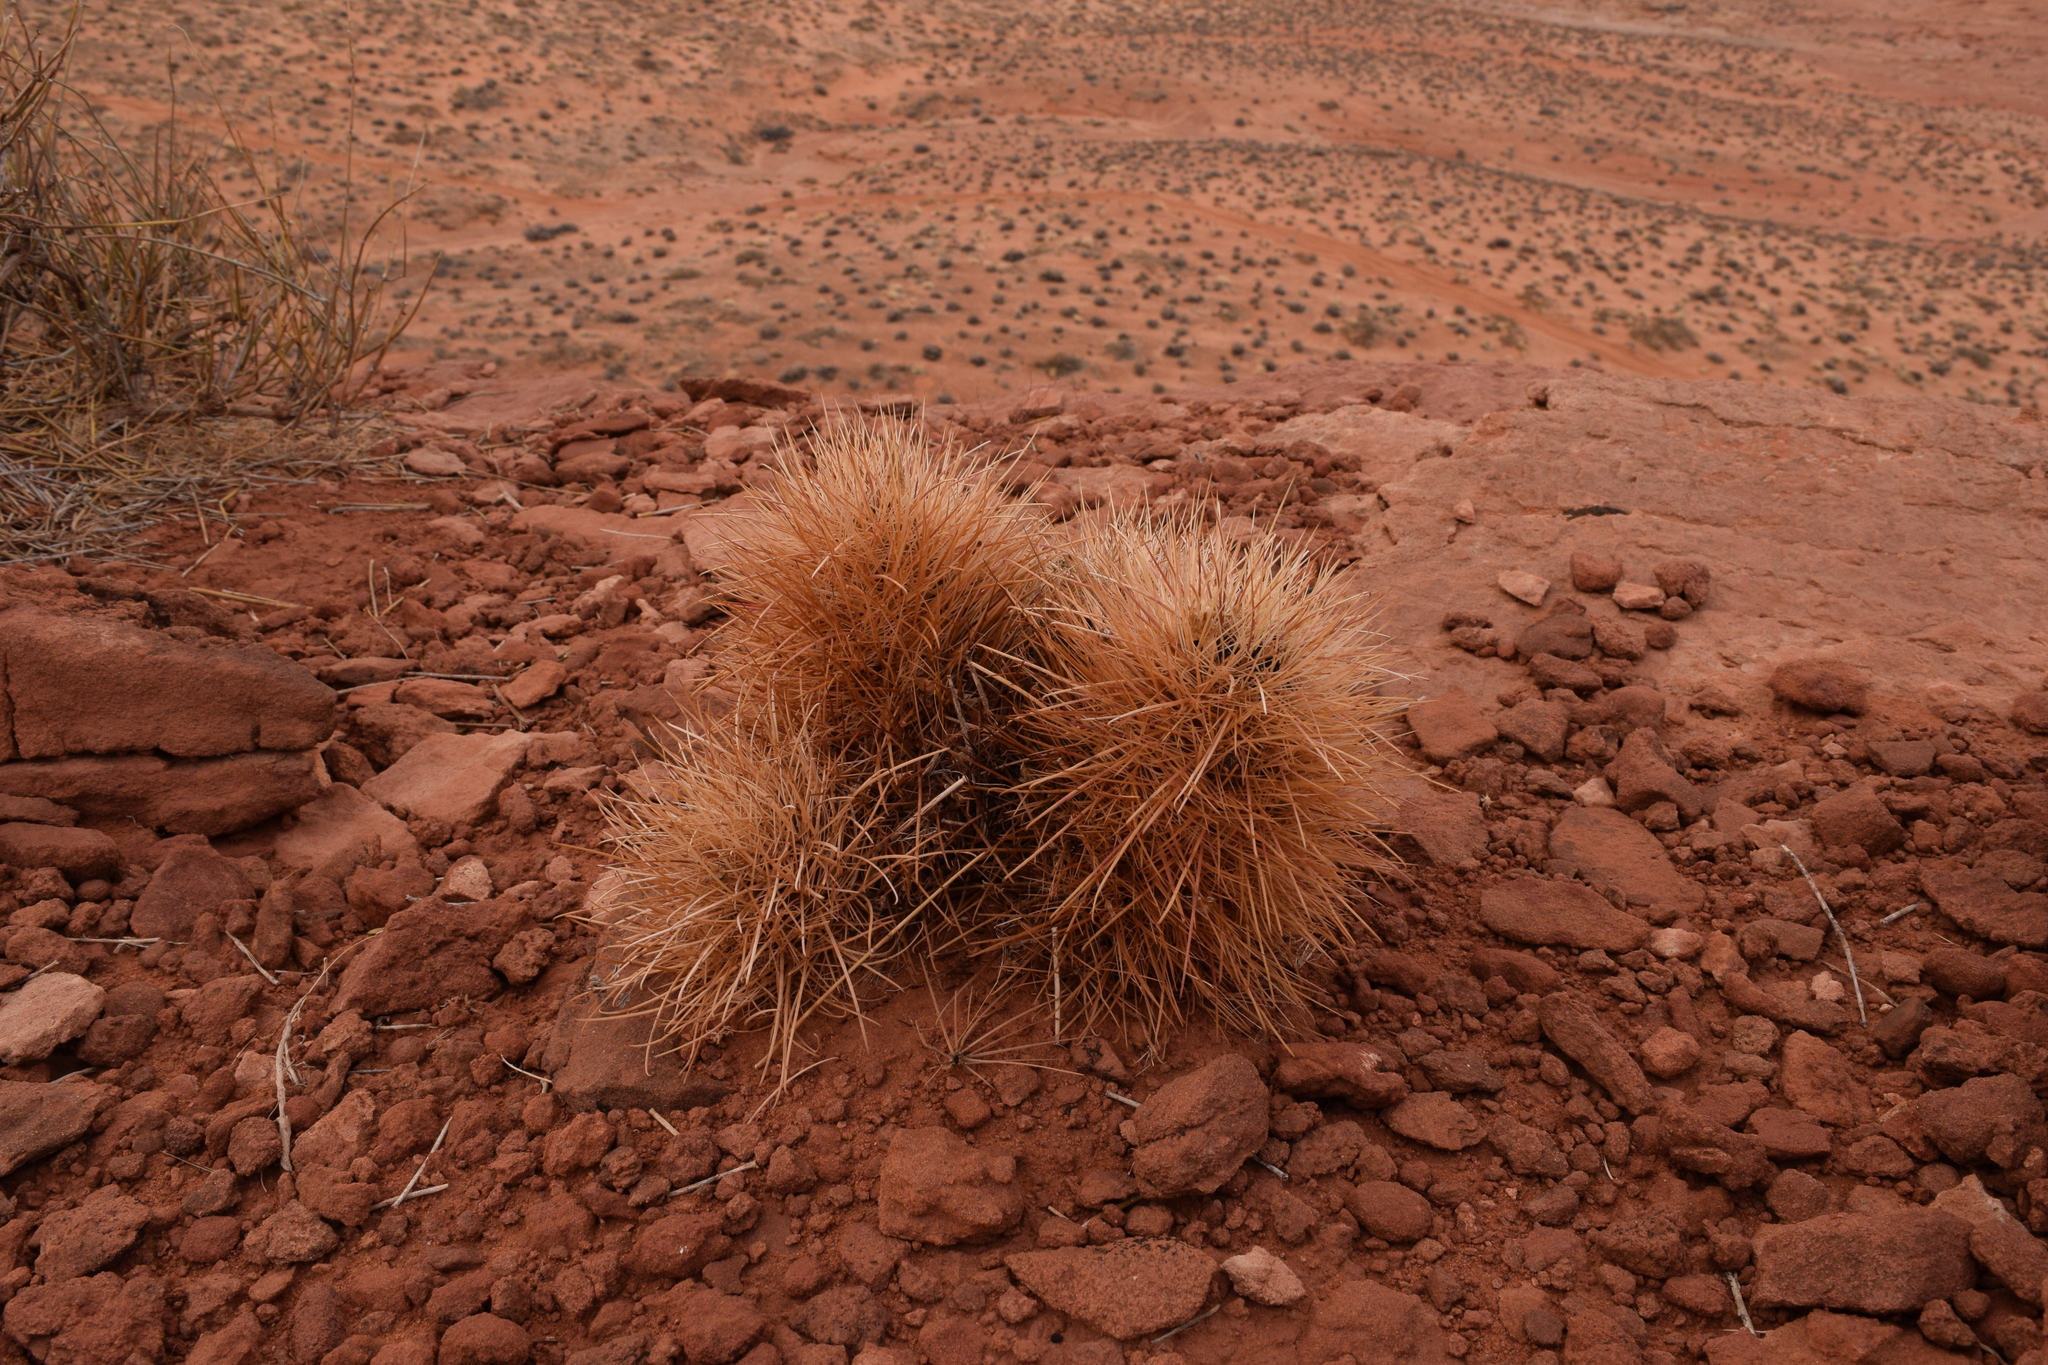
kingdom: Plantae
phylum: Tracheophyta
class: Magnoliopsida
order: Caryophyllales
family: Cactaceae
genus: Sclerocactus
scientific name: Sclerocactus parviflorus
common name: Small-flower fishhook cactus
